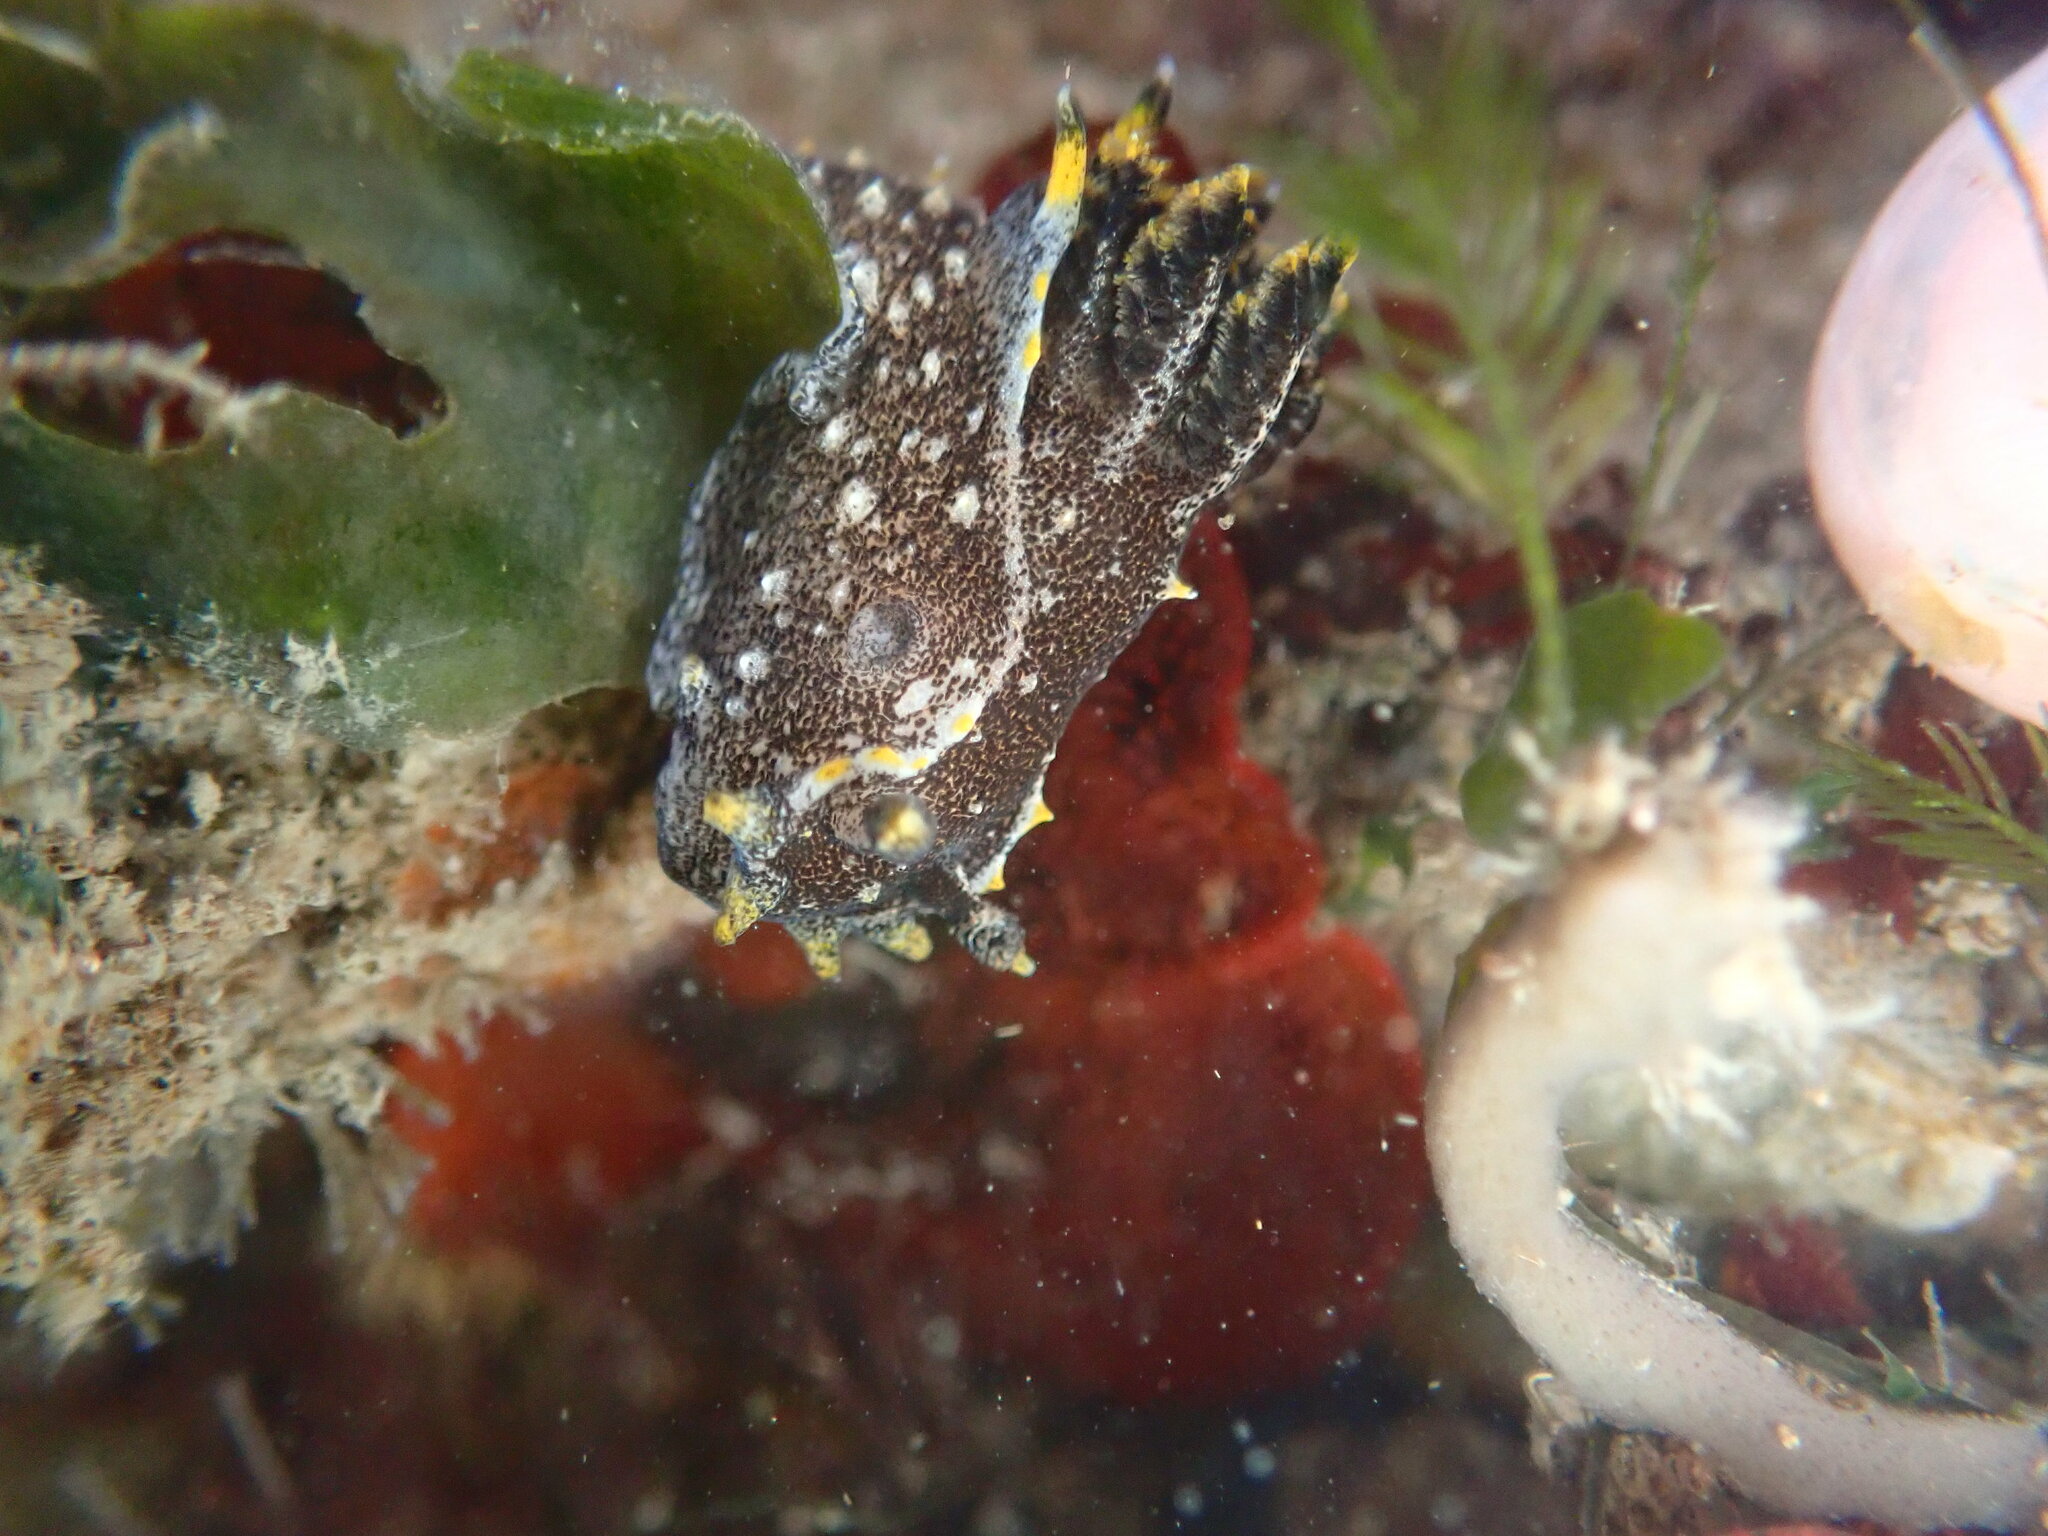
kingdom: Animalia
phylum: Mollusca
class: Gastropoda
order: Nudibranchia
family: Polyceridae
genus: Polycera
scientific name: Polycera hedgpethi
